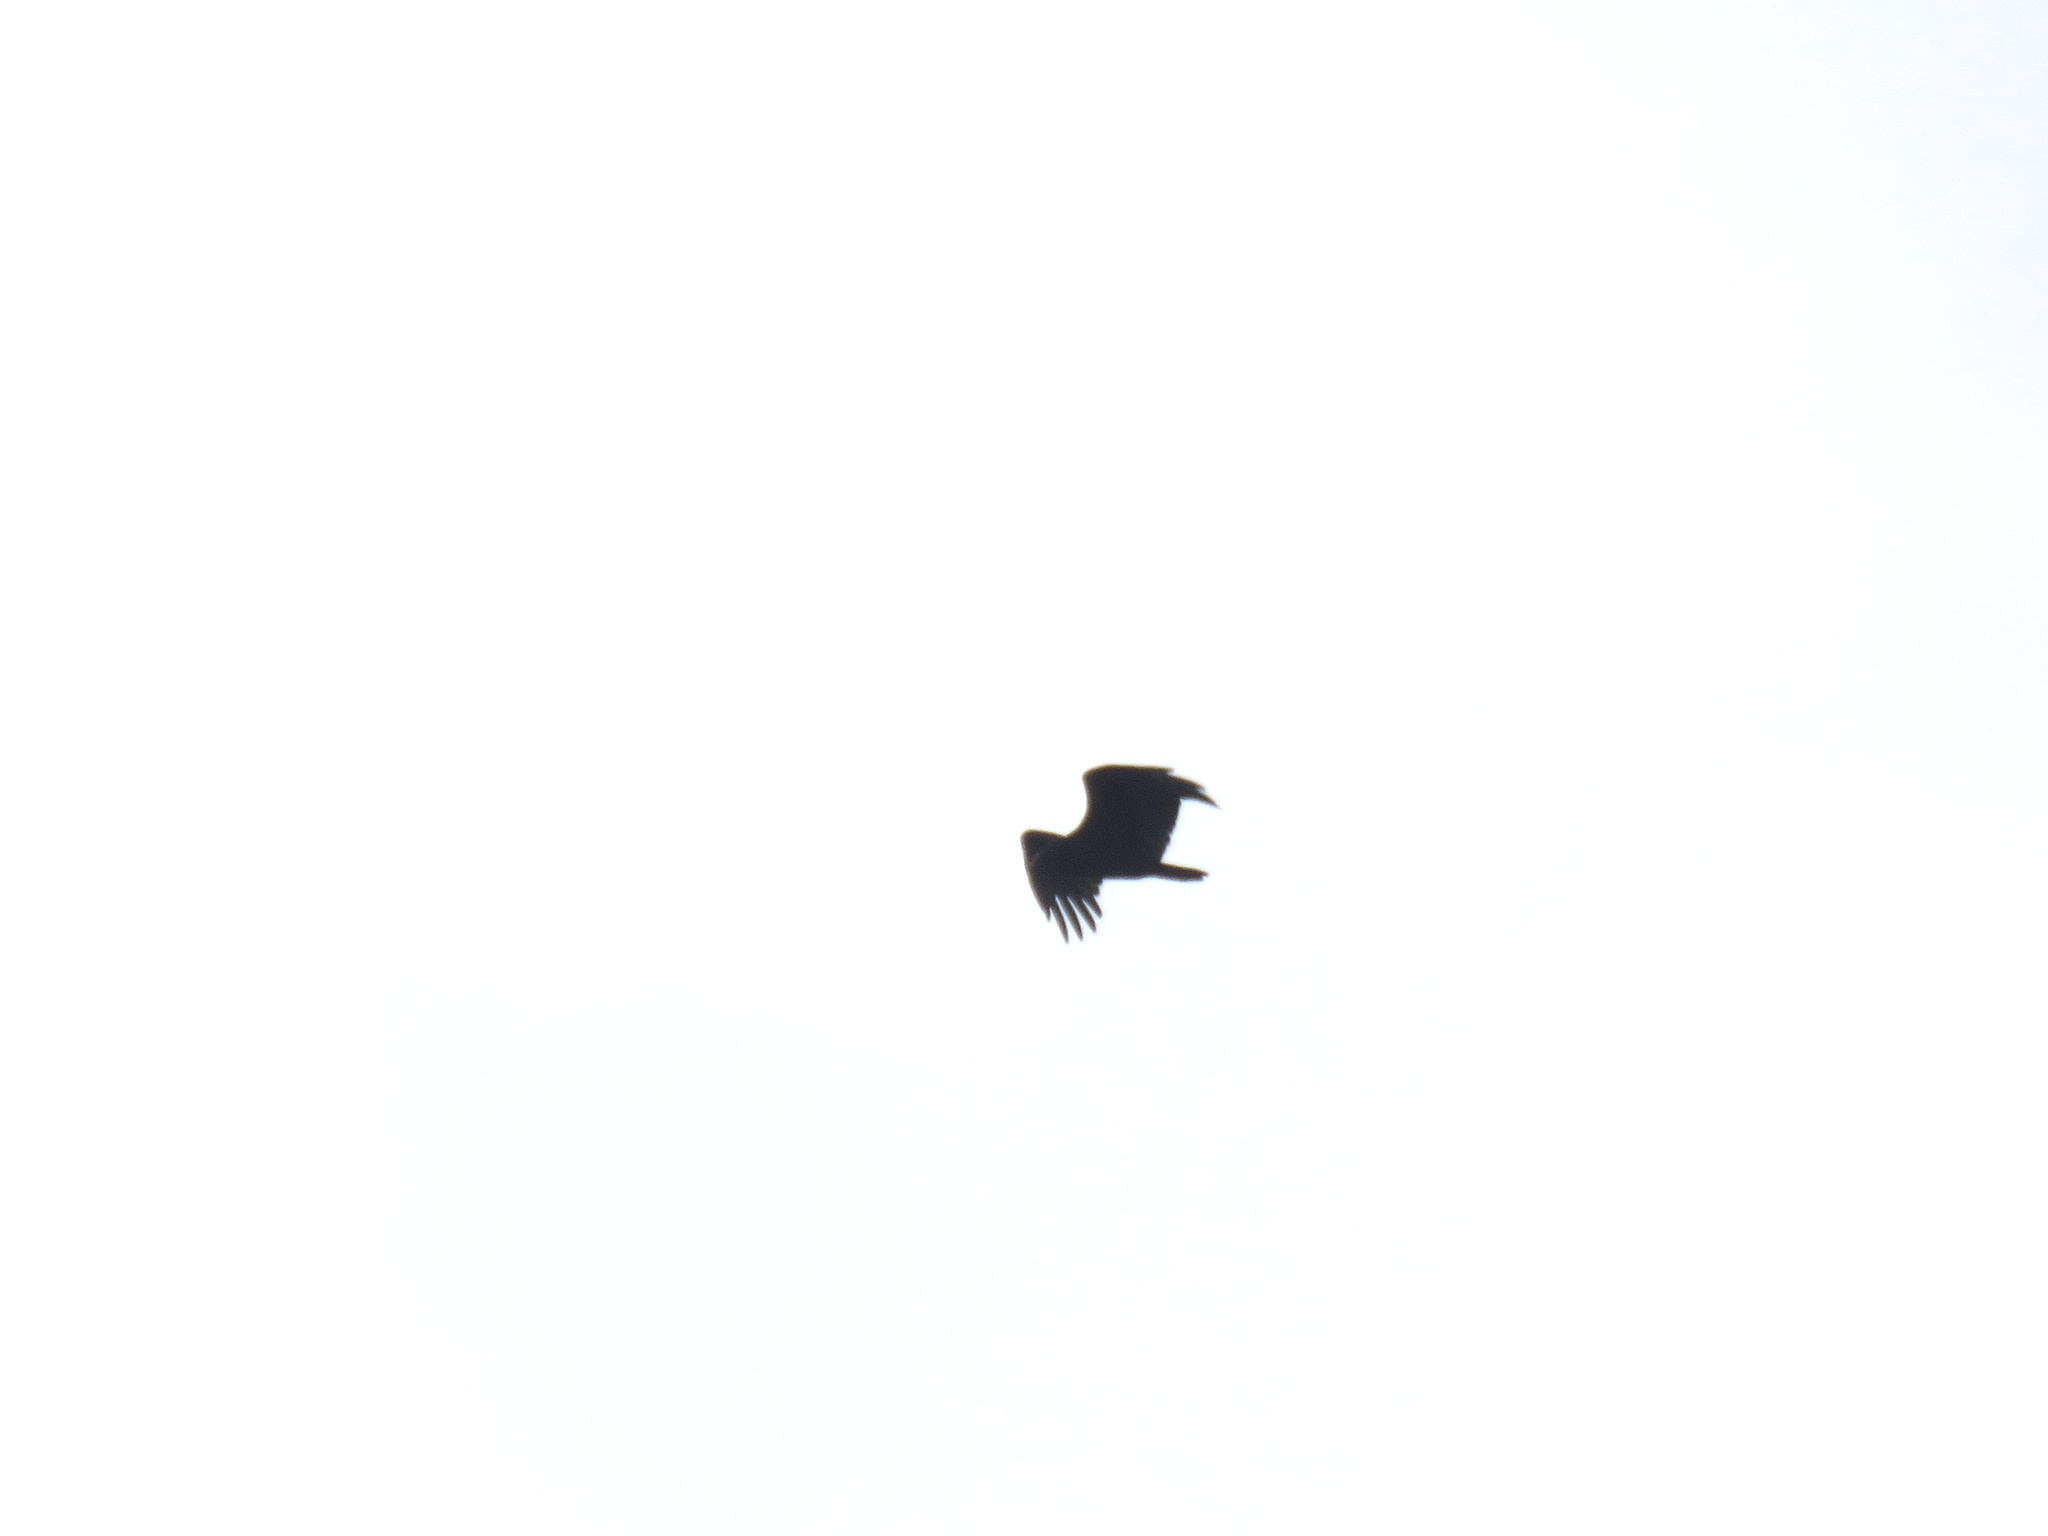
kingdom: Animalia
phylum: Chordata
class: Aves
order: Accipitriformes
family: Cathartidae
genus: Cathartes
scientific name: Cathartes aura
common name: Turkey vulture
